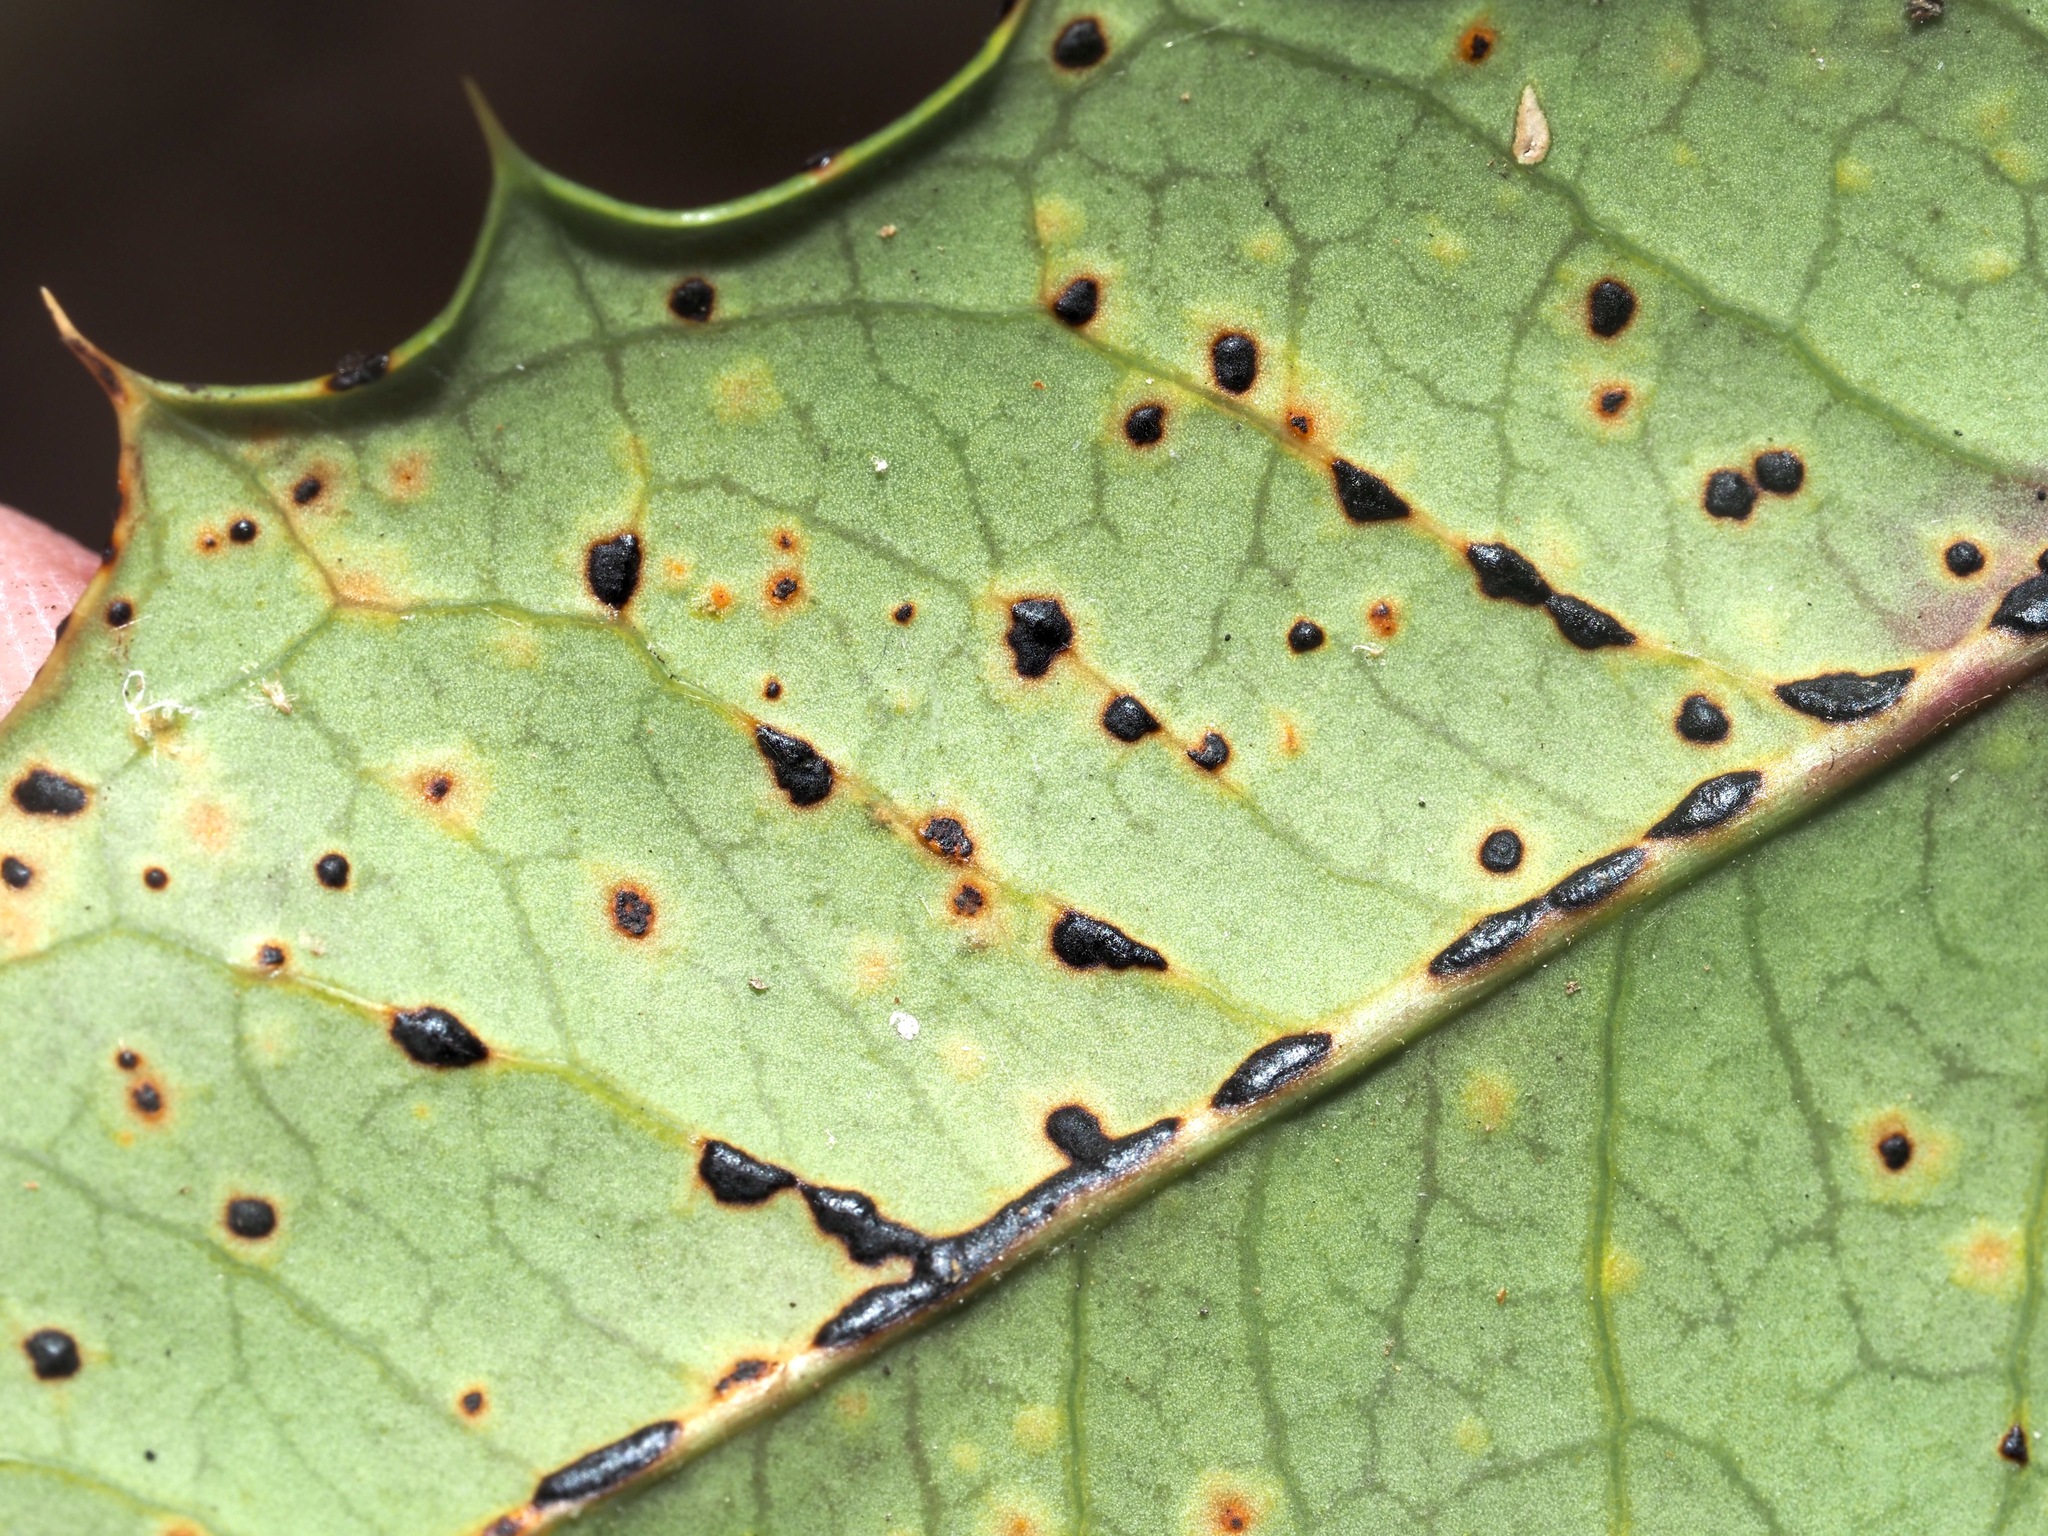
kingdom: Fungi
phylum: Ascomycota
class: Leotiomycetes
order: Rhytismatales
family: Rhytismataceae
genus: Macroderma
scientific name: Macroderma curtisii
